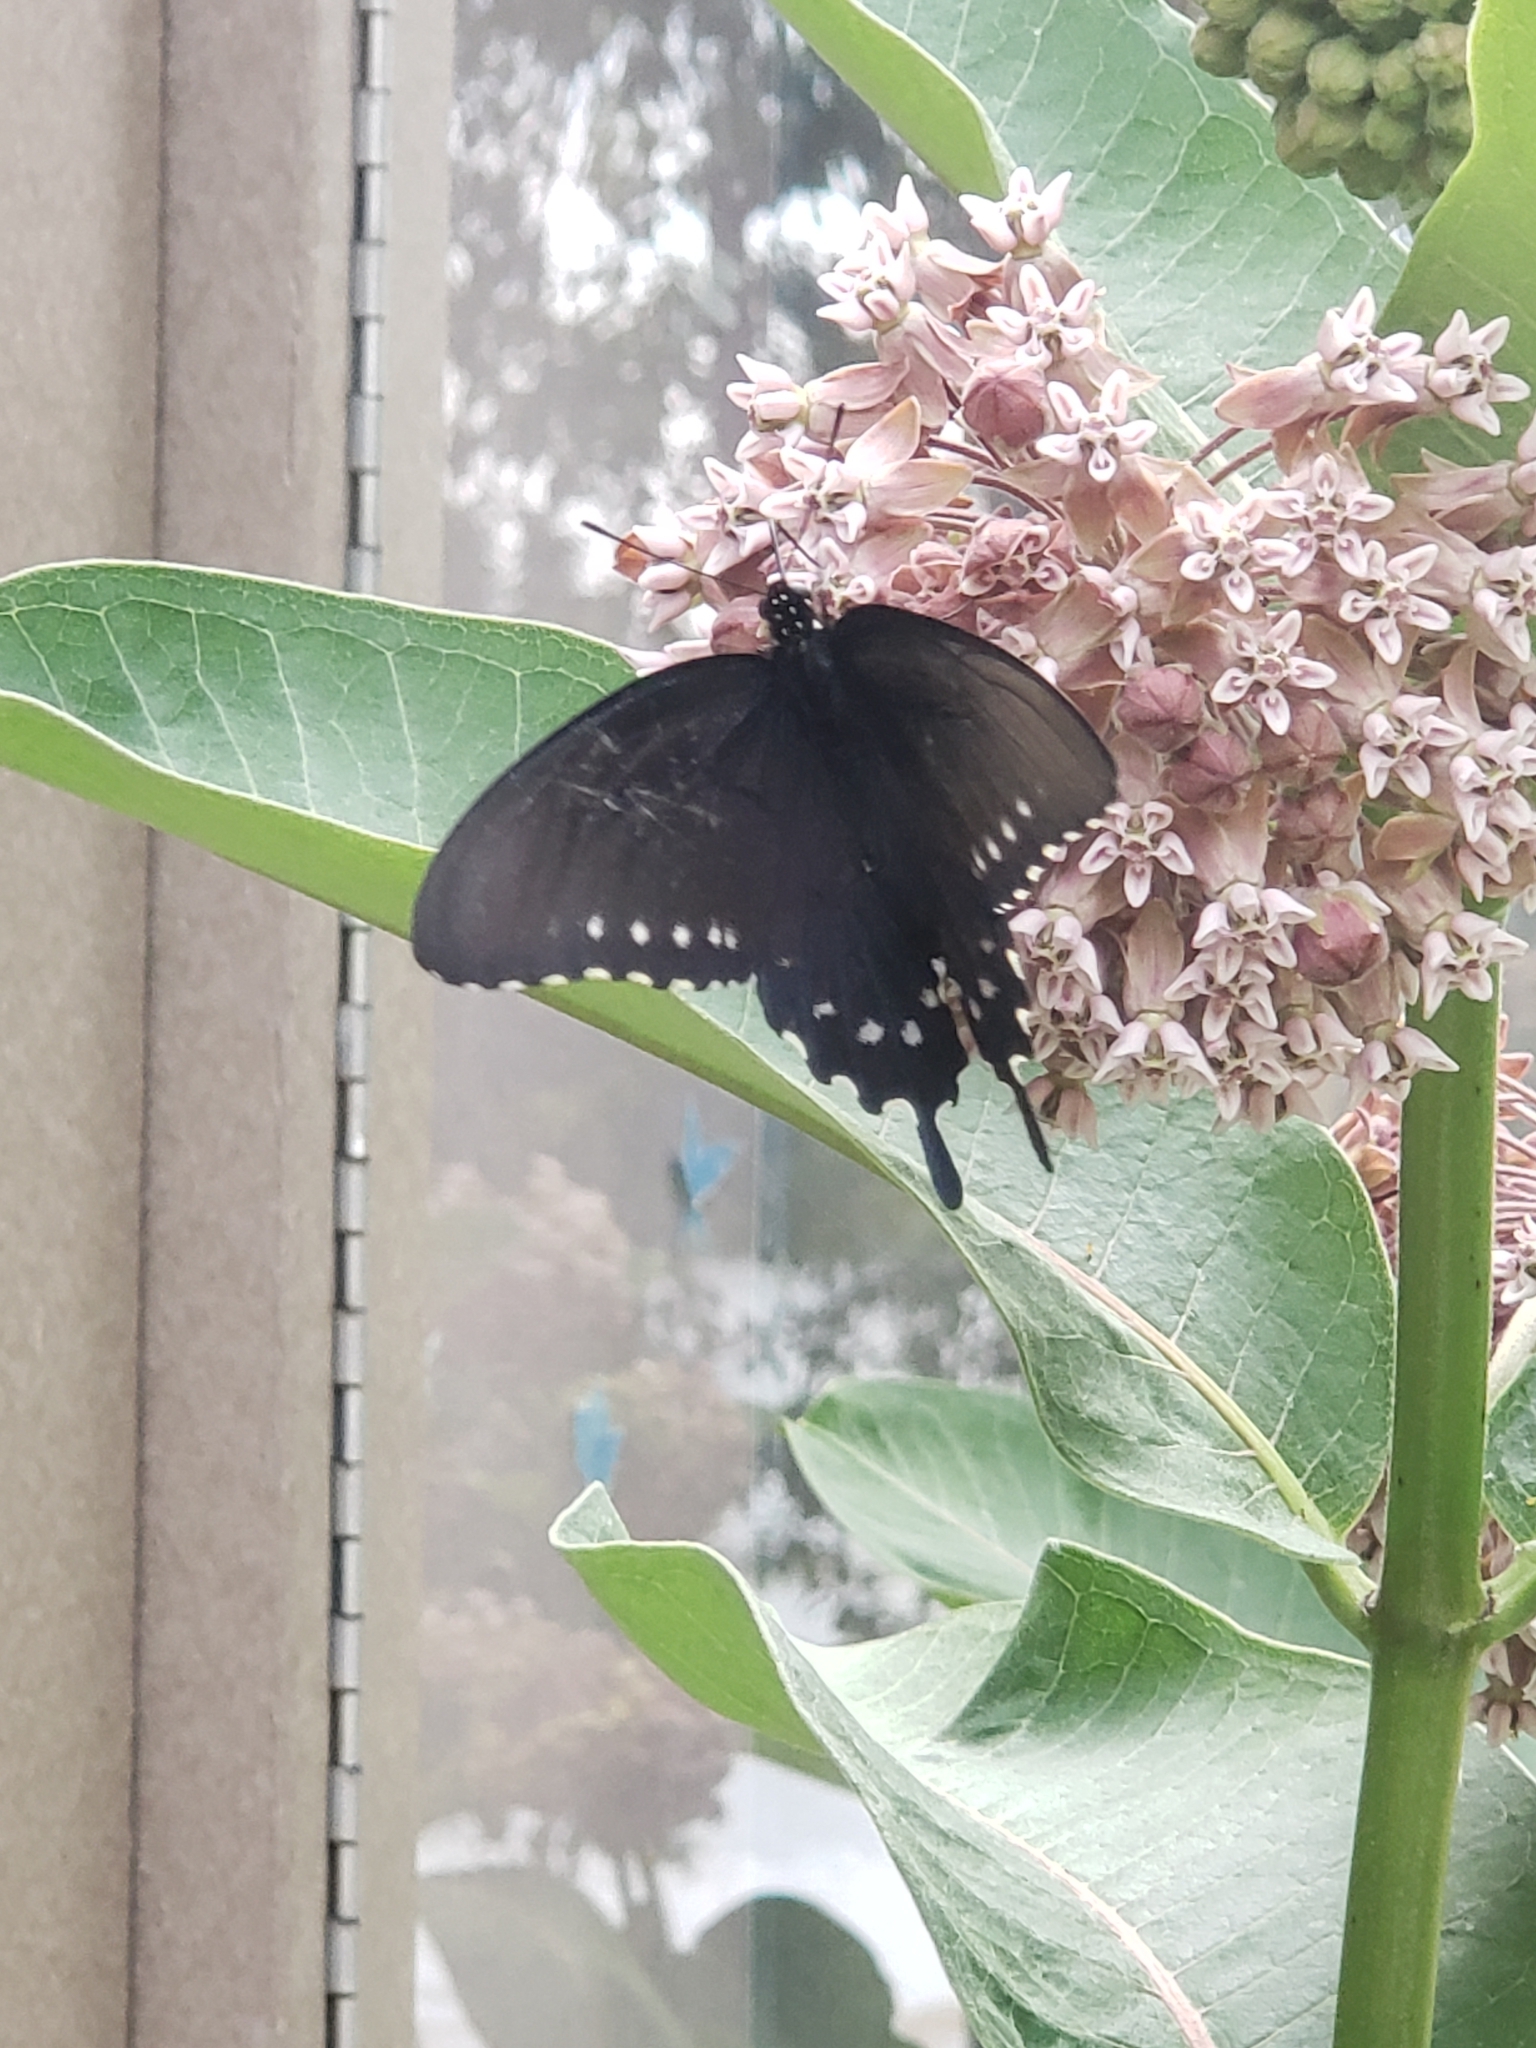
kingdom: Animalia
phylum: Arthropoda
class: Insecta
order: Lepidoptera
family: Papilionidae
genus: Battus
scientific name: Battus philenor
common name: Pipevine swallowtail
